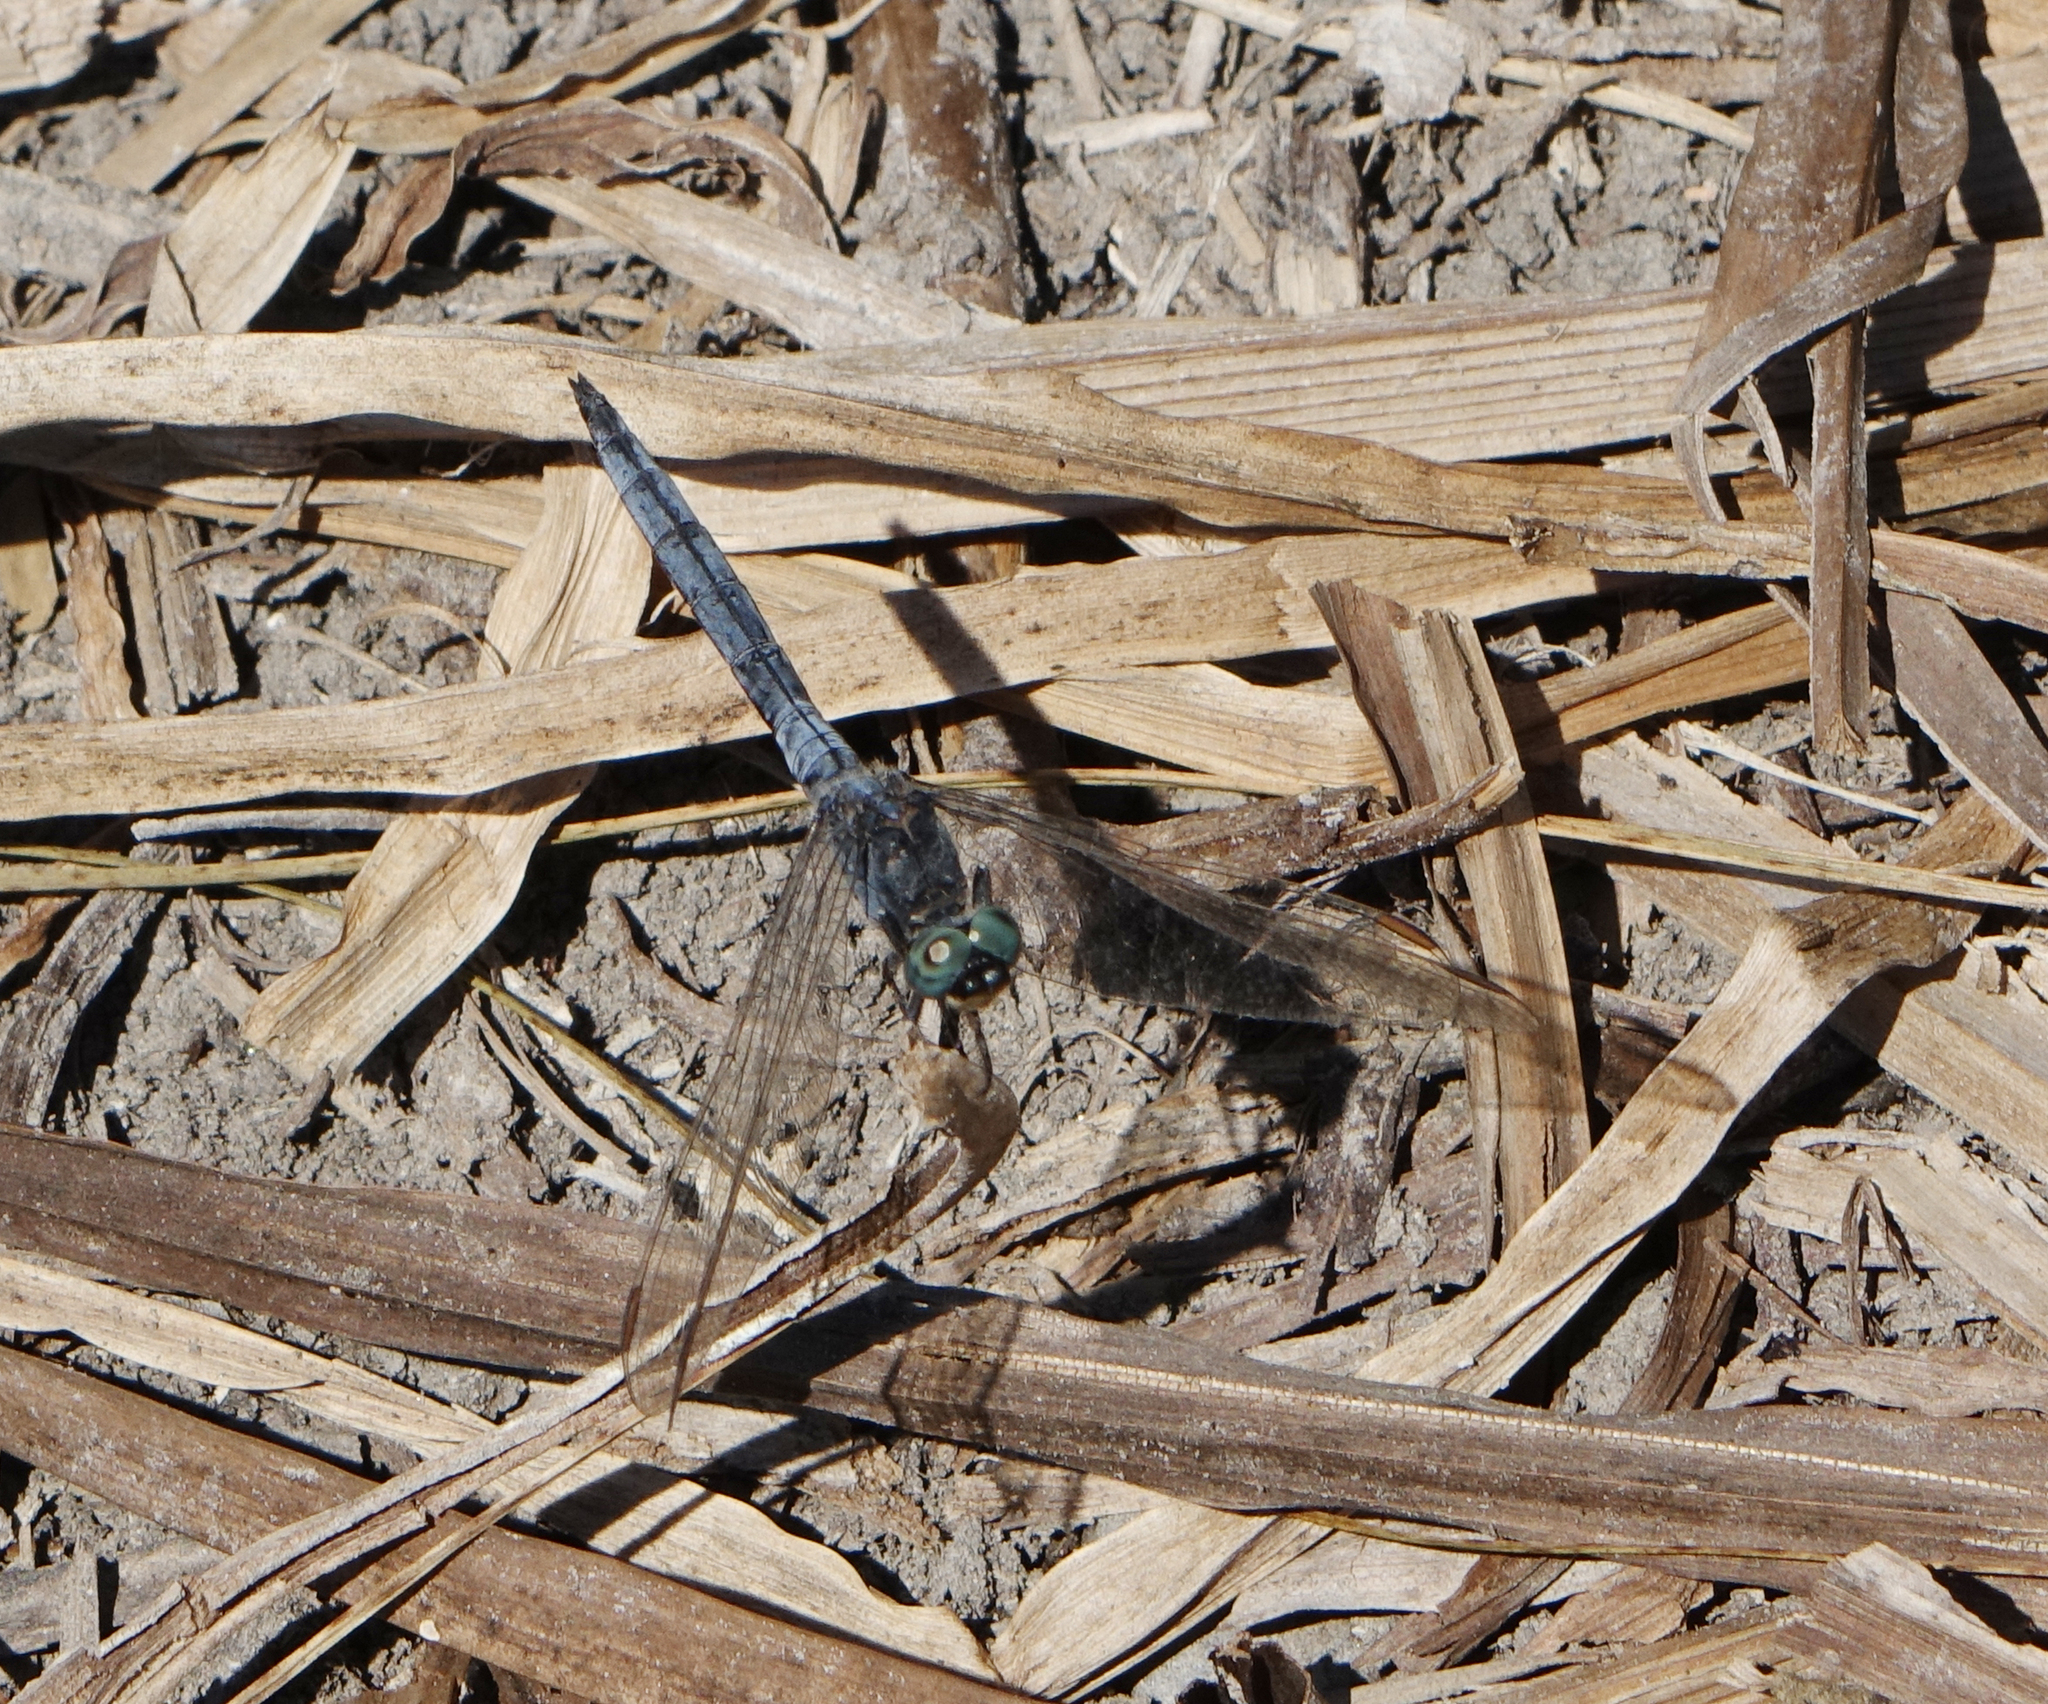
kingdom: Animalia
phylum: Arthropoda
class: Insecta
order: Odonata
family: Libellulidae
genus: Orthetrum
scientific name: Orthetrum coerulescens
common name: Keeled skimmer
